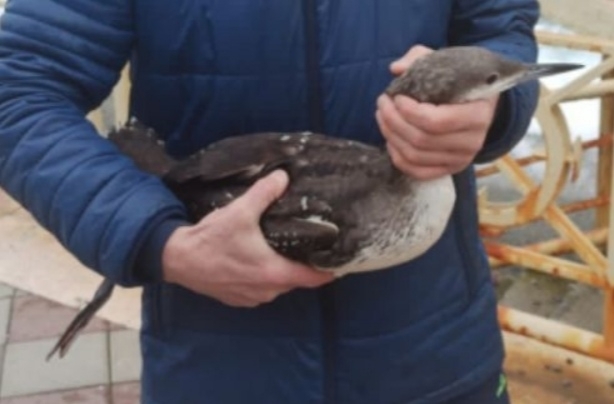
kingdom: Animalia
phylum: Chordata
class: Aves
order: Gaviiformes
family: Gaviidae
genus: Gavia
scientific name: Gavia arctica
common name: Black-throated loon
